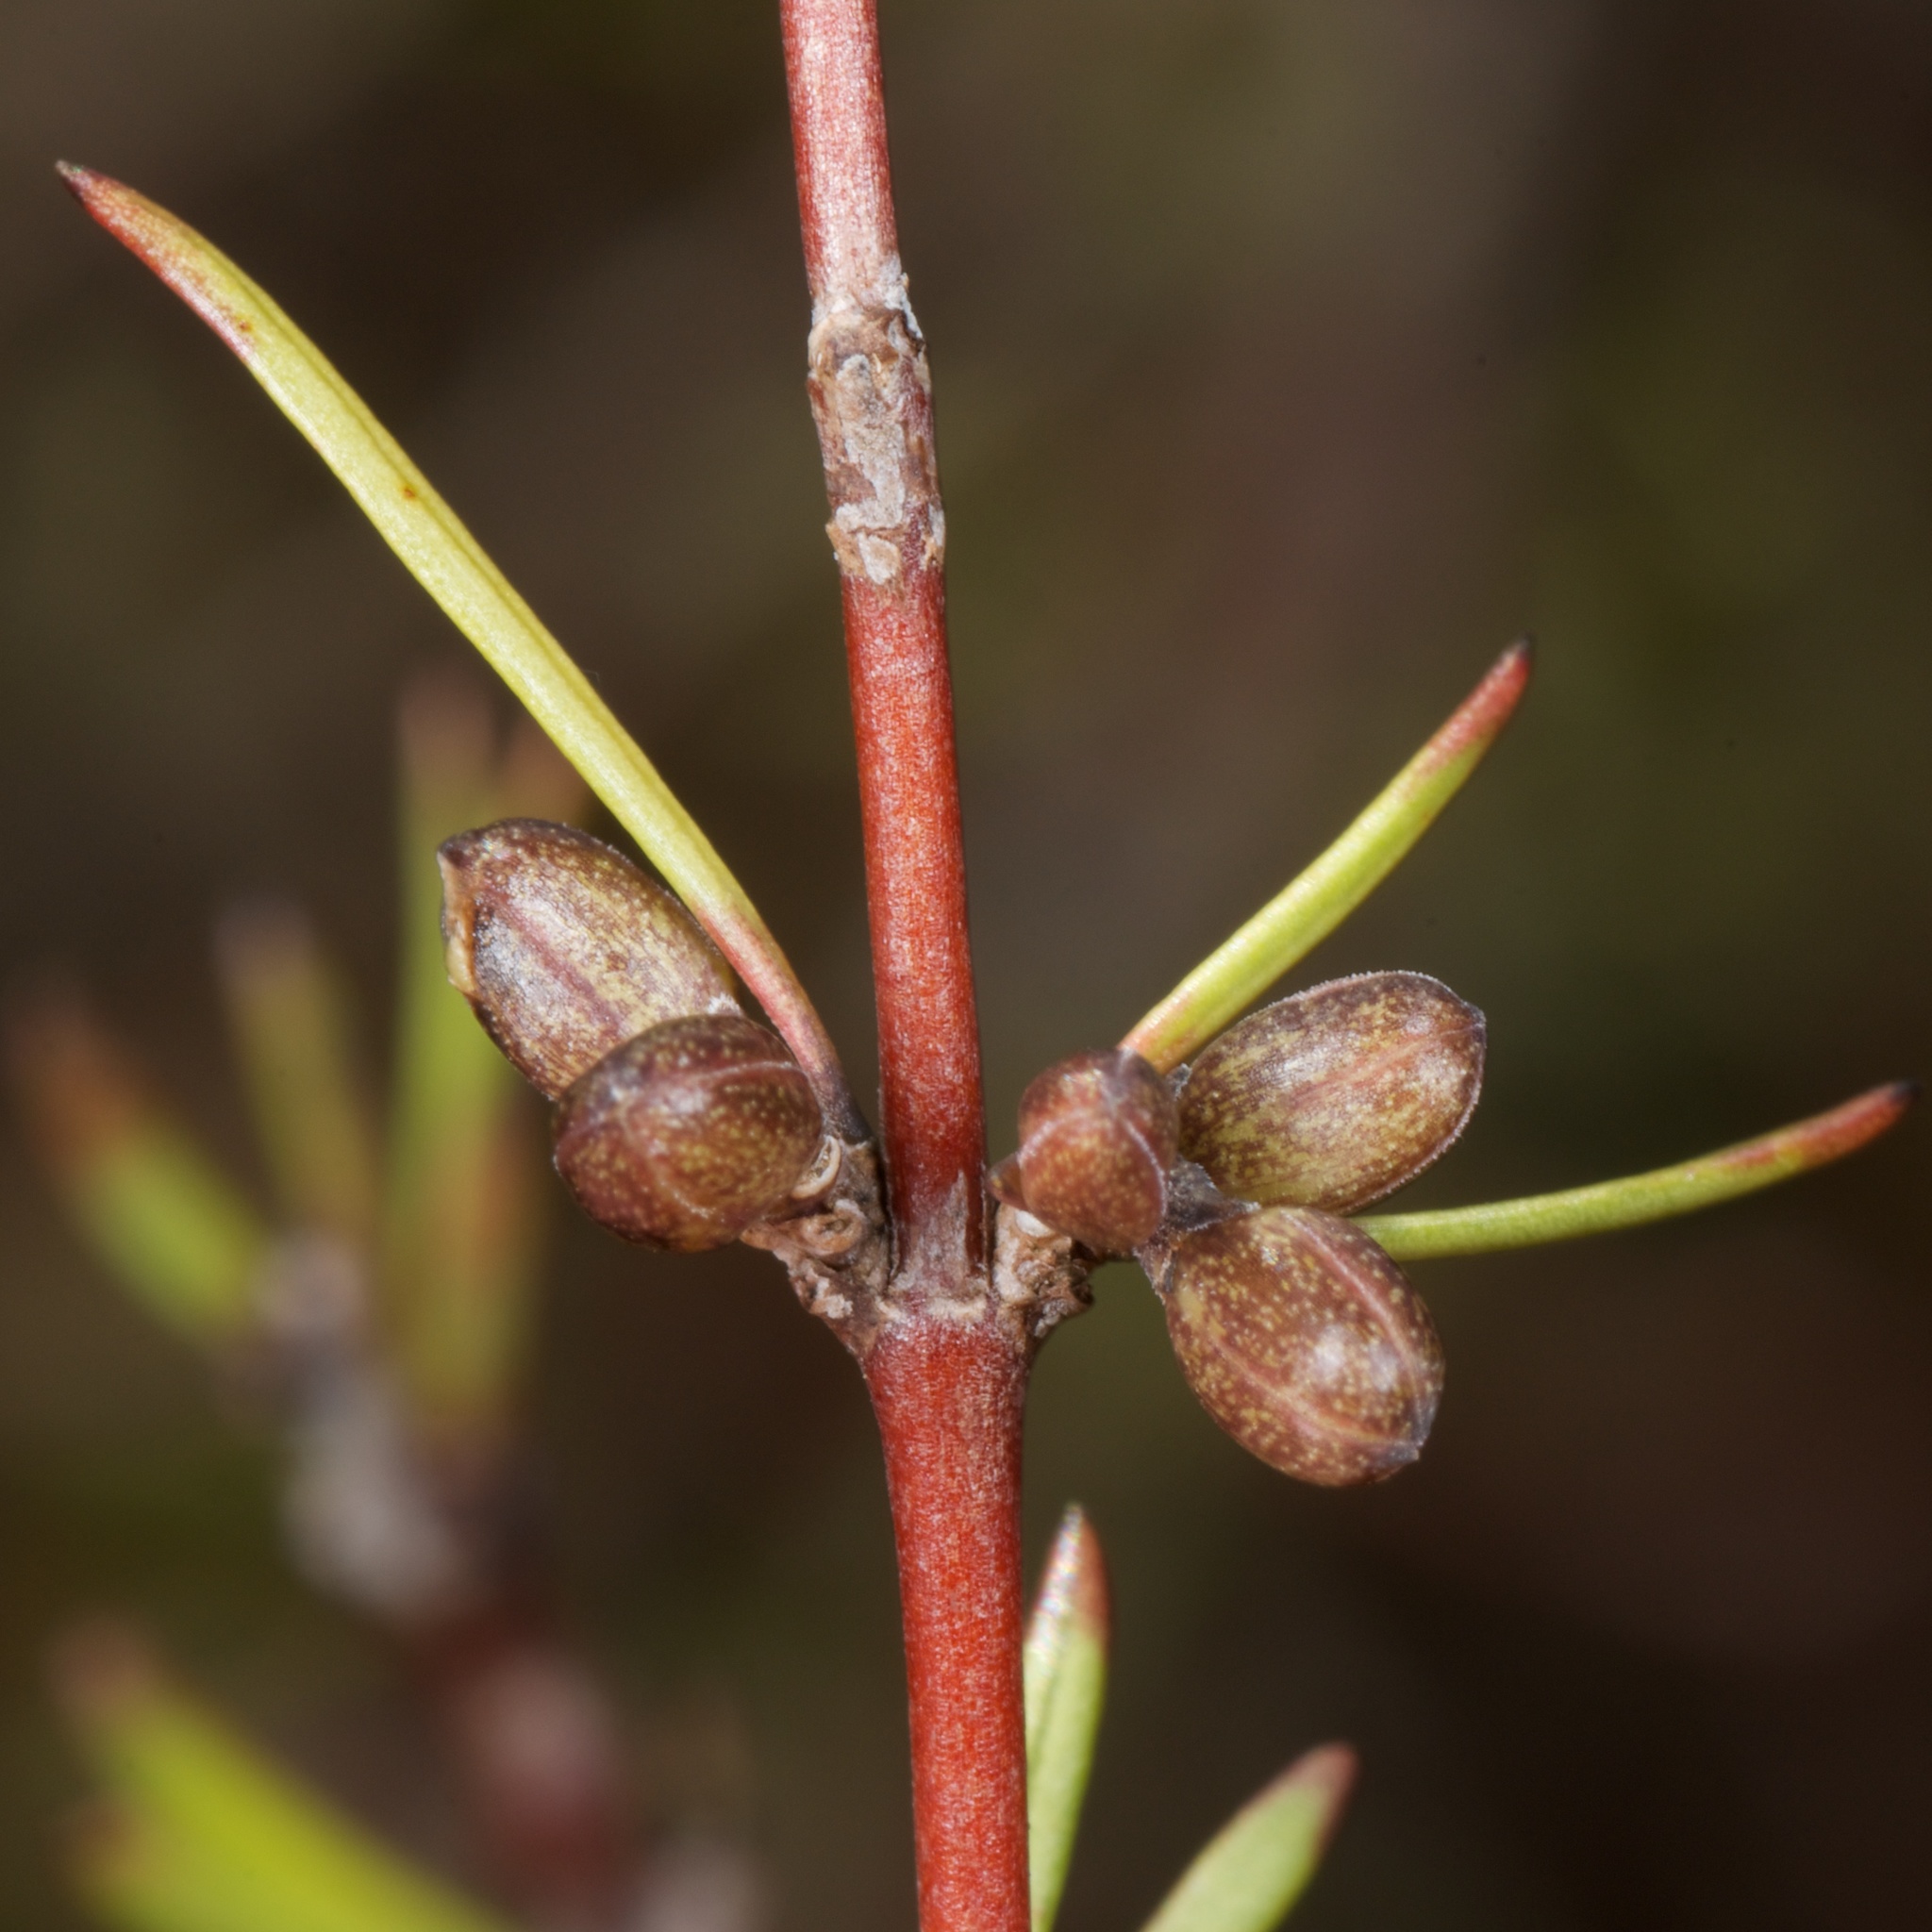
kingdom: Plantae
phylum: Tracheophyta
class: Magnoliopsida
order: Gentianales
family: Rubiaceae
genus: Coprosma
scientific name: Coprosma intertexta
